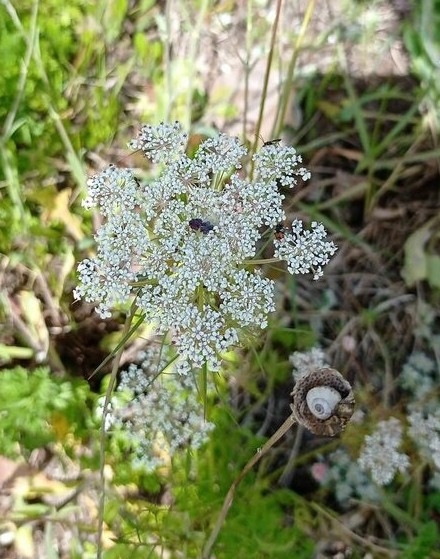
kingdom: Plantae
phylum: Tracheophyta
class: Magnoliopsida
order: Apiales
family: Apiaceae
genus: Daucus
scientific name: Daucus carota
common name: Wild carrot
